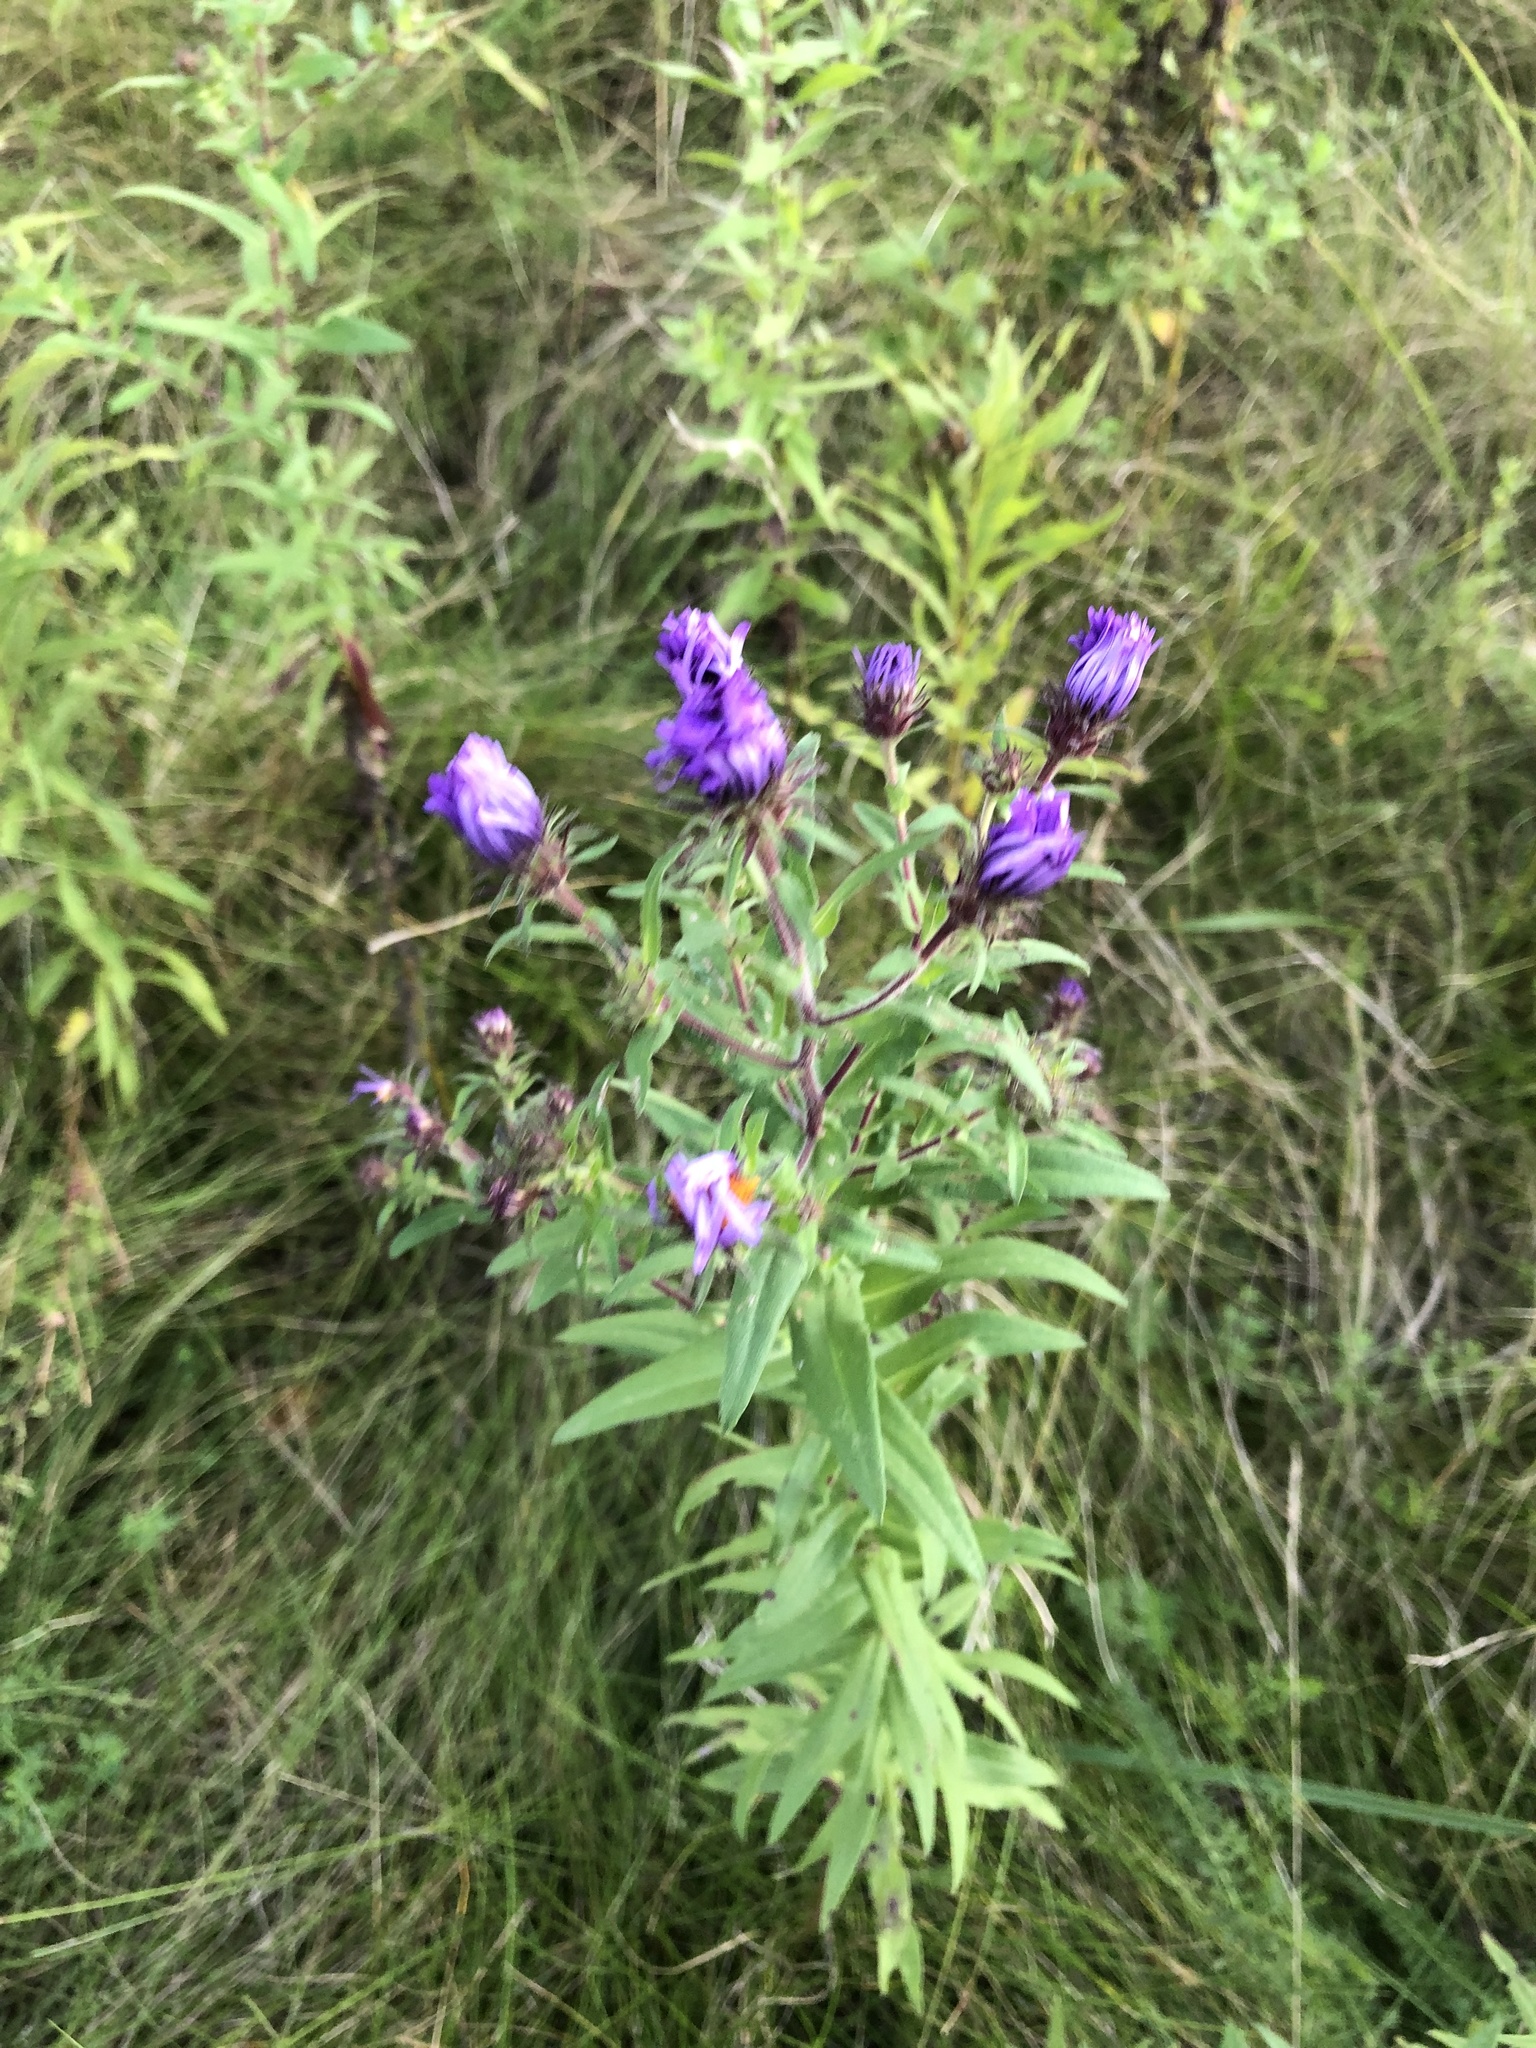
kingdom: Plantae
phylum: Tracheophyta
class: Magnoliopsida
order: Asterales
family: Asteraceae
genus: Symphyotrichum
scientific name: Symphyotrichum novae-angliae
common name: Michaelmas daisy
